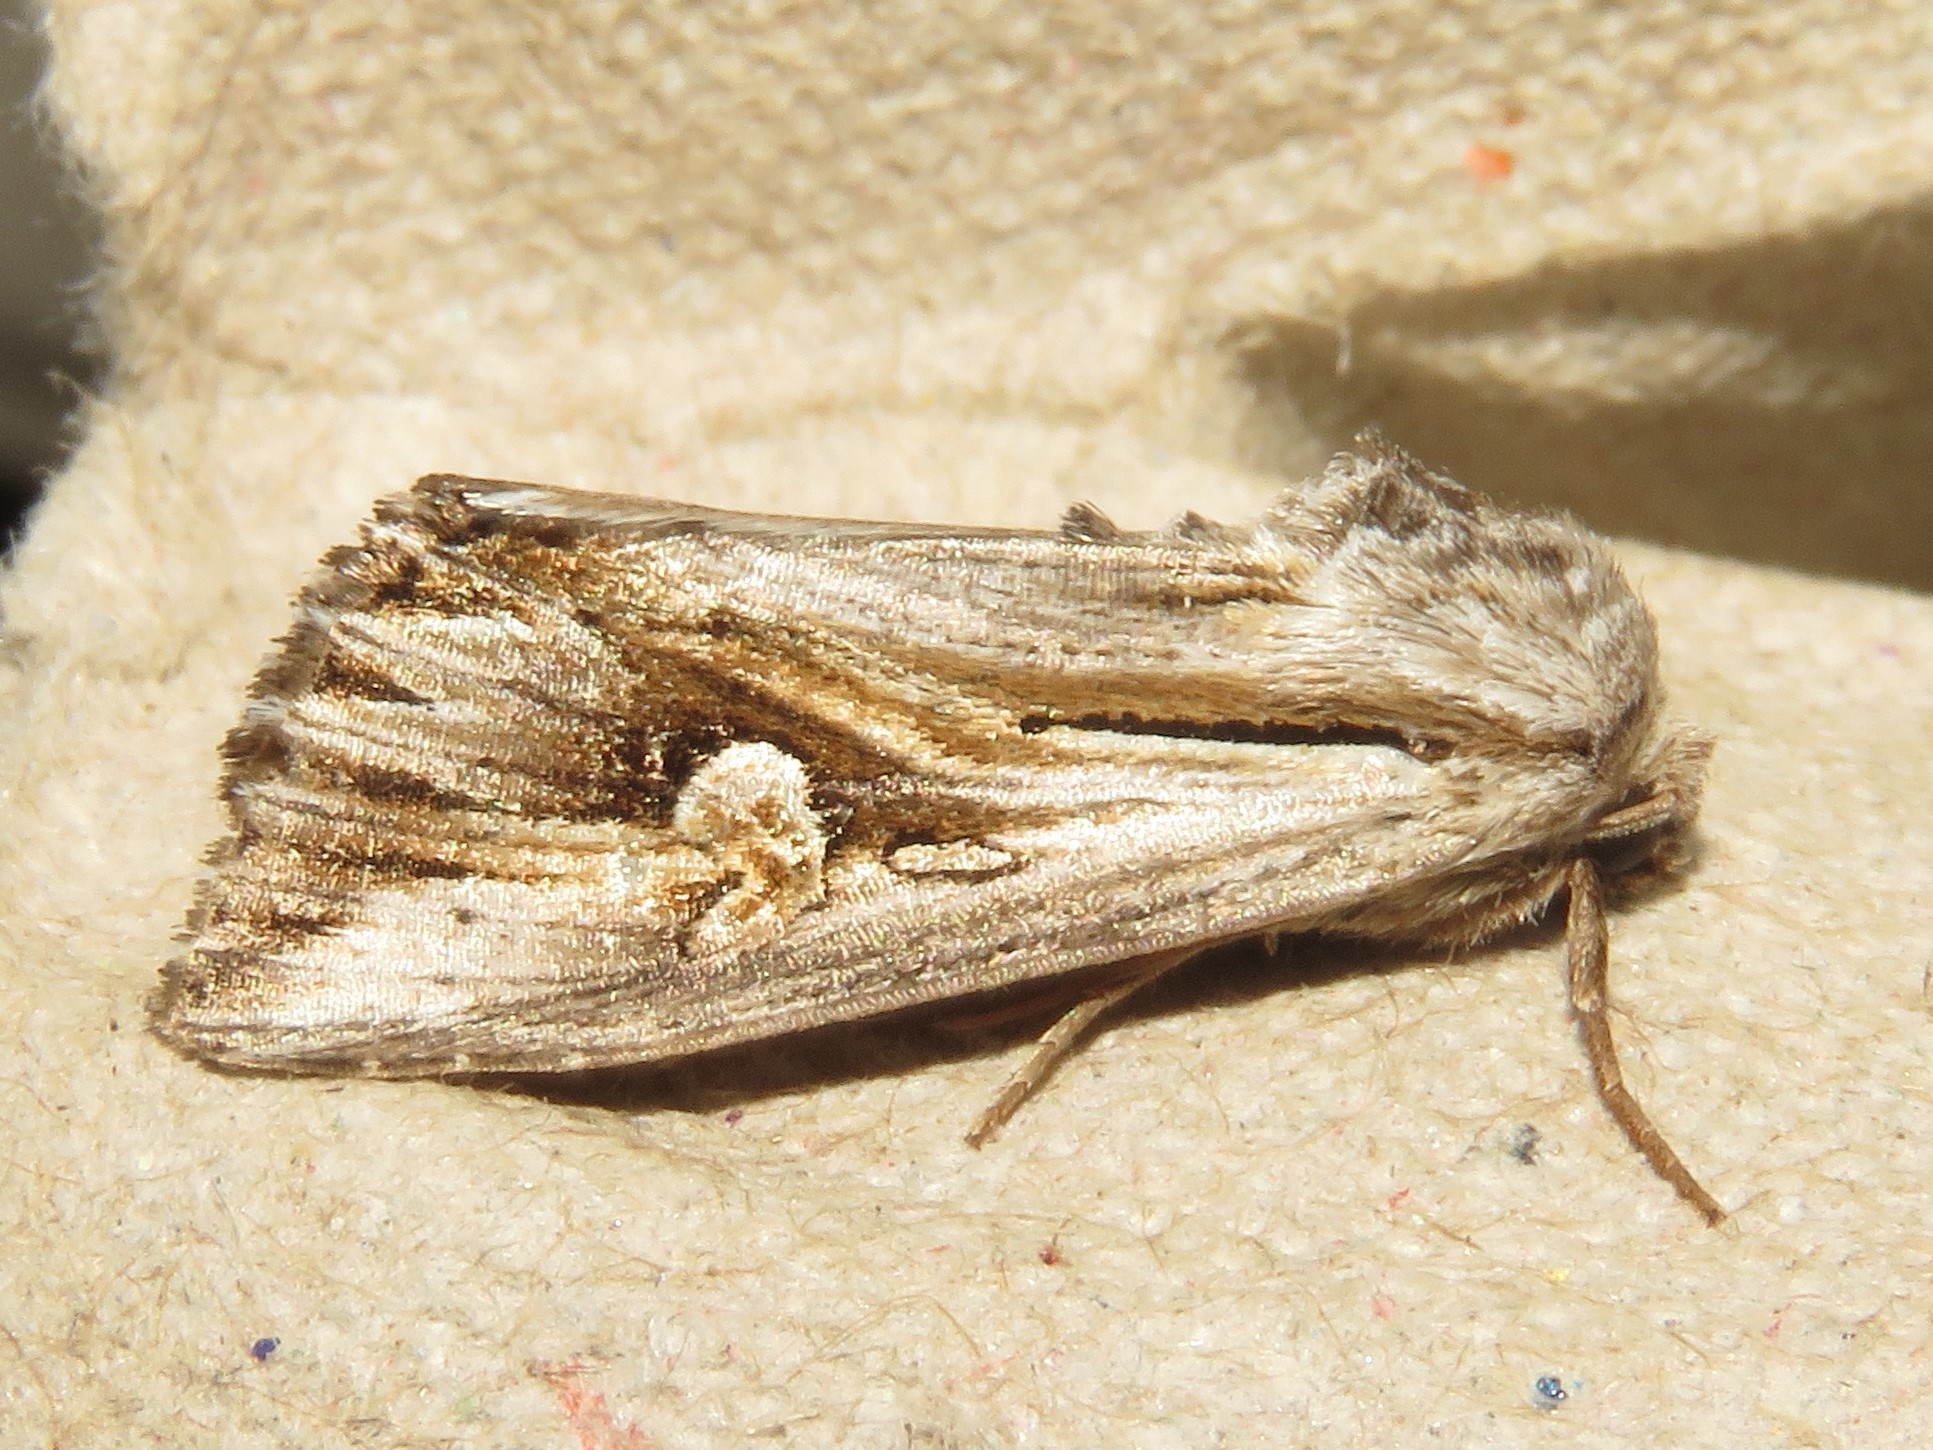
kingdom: Animalia
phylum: Arthropoda
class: Insecta
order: Lepidoptera
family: Noctuidae
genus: Nedra
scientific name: Nedra ramosula
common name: Gray half-spot
